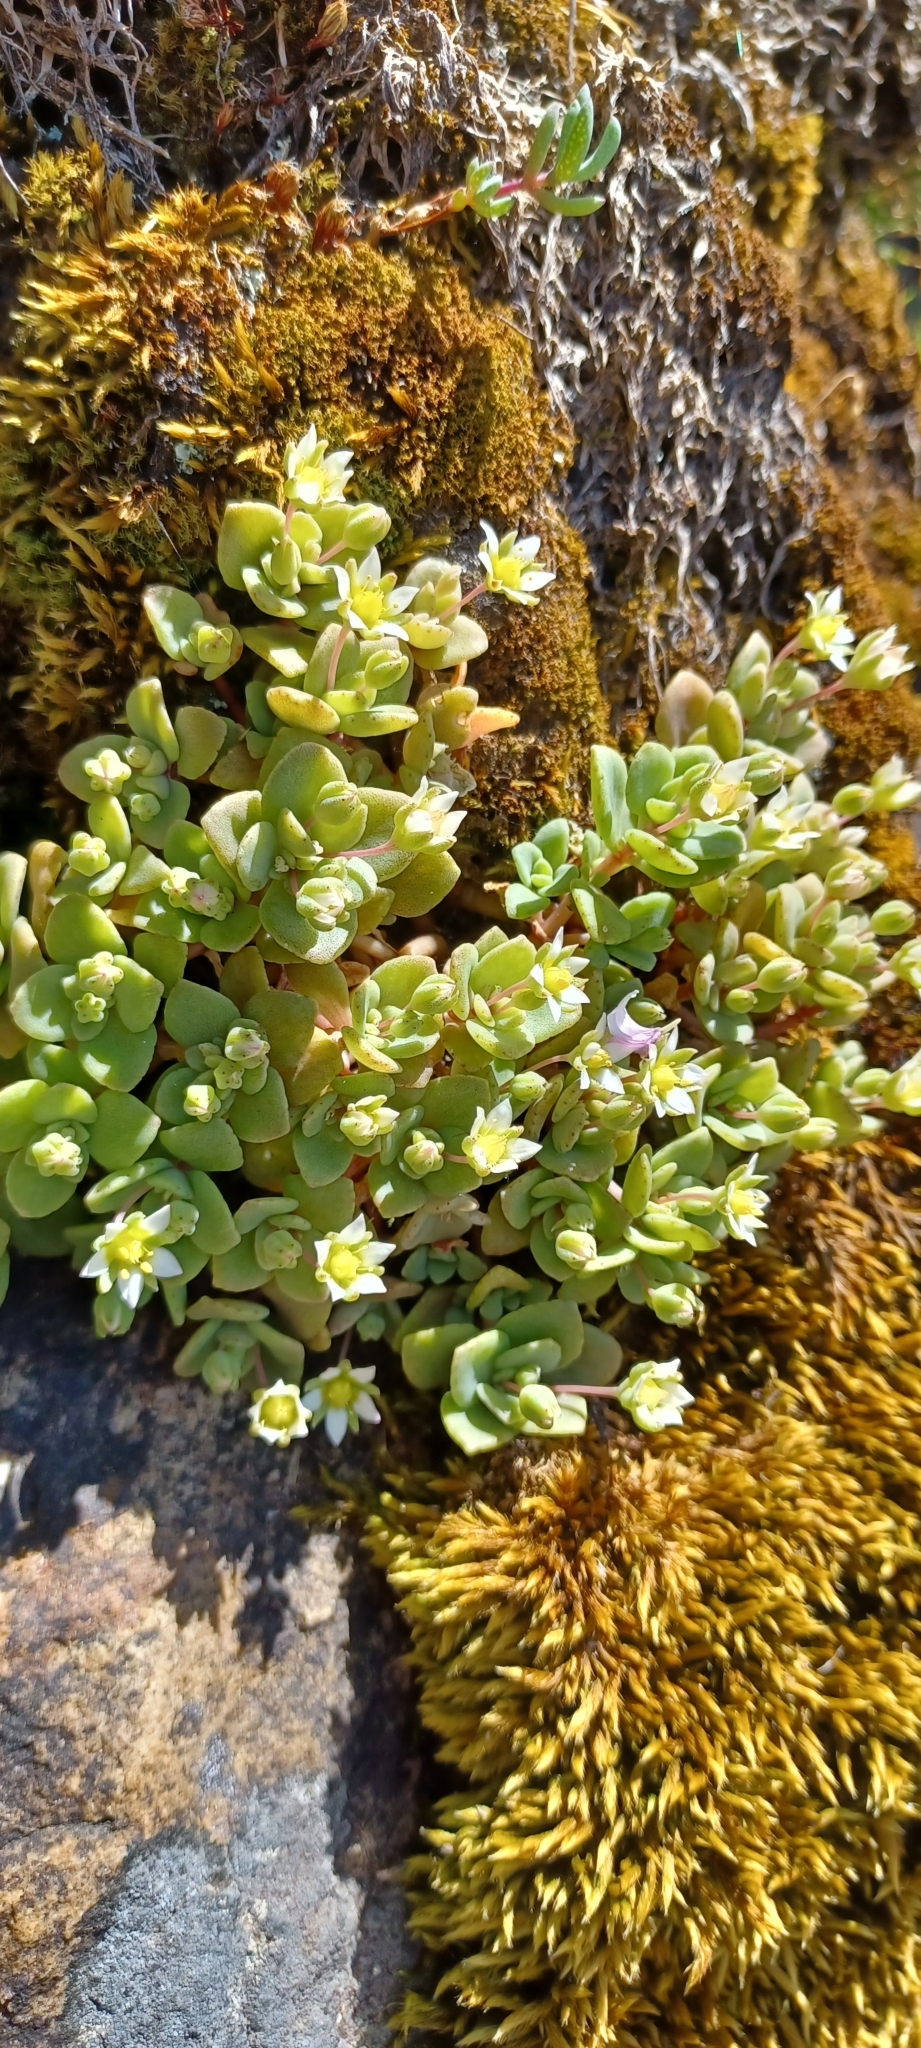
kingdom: Plantae
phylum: Tracheophyta
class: Magnoliopsida
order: Saxifragales
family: Crassulaceae
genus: Crassula
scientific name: Crassula pellucida
